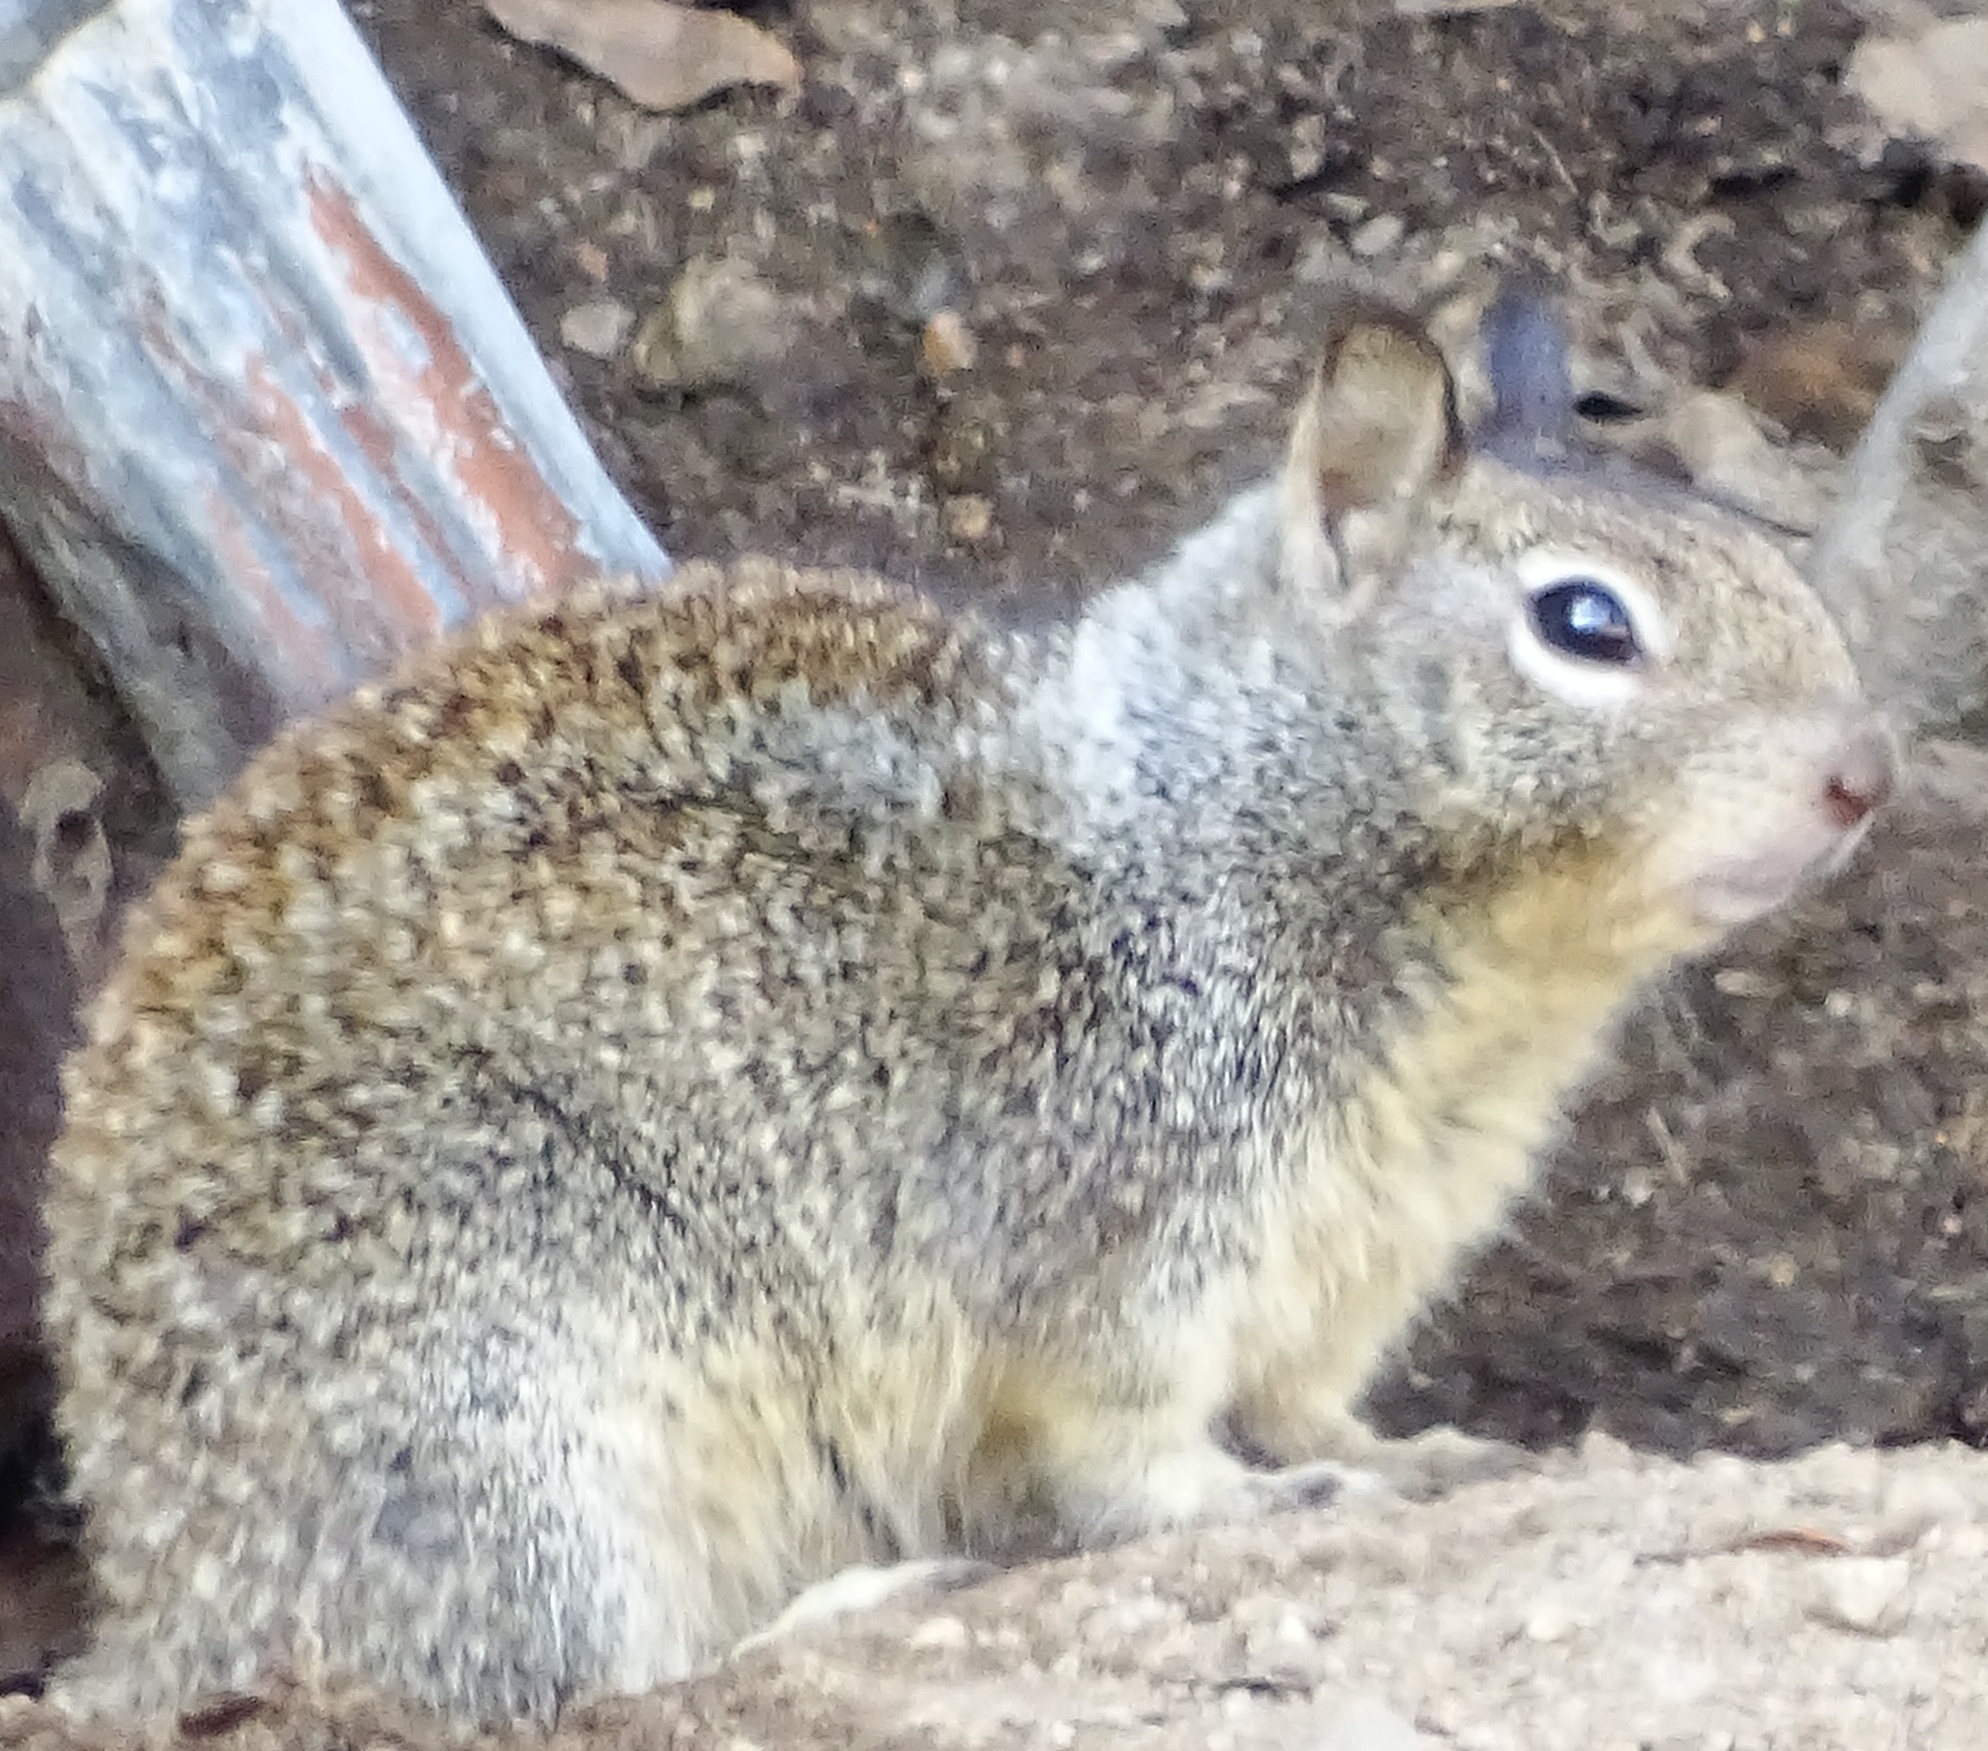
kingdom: Animalia
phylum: Chordata
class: Mammalia
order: Rodentia
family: Sciuridae
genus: Otospermophilus
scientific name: Otospermophilus beecheyi
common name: California ground squirrel
